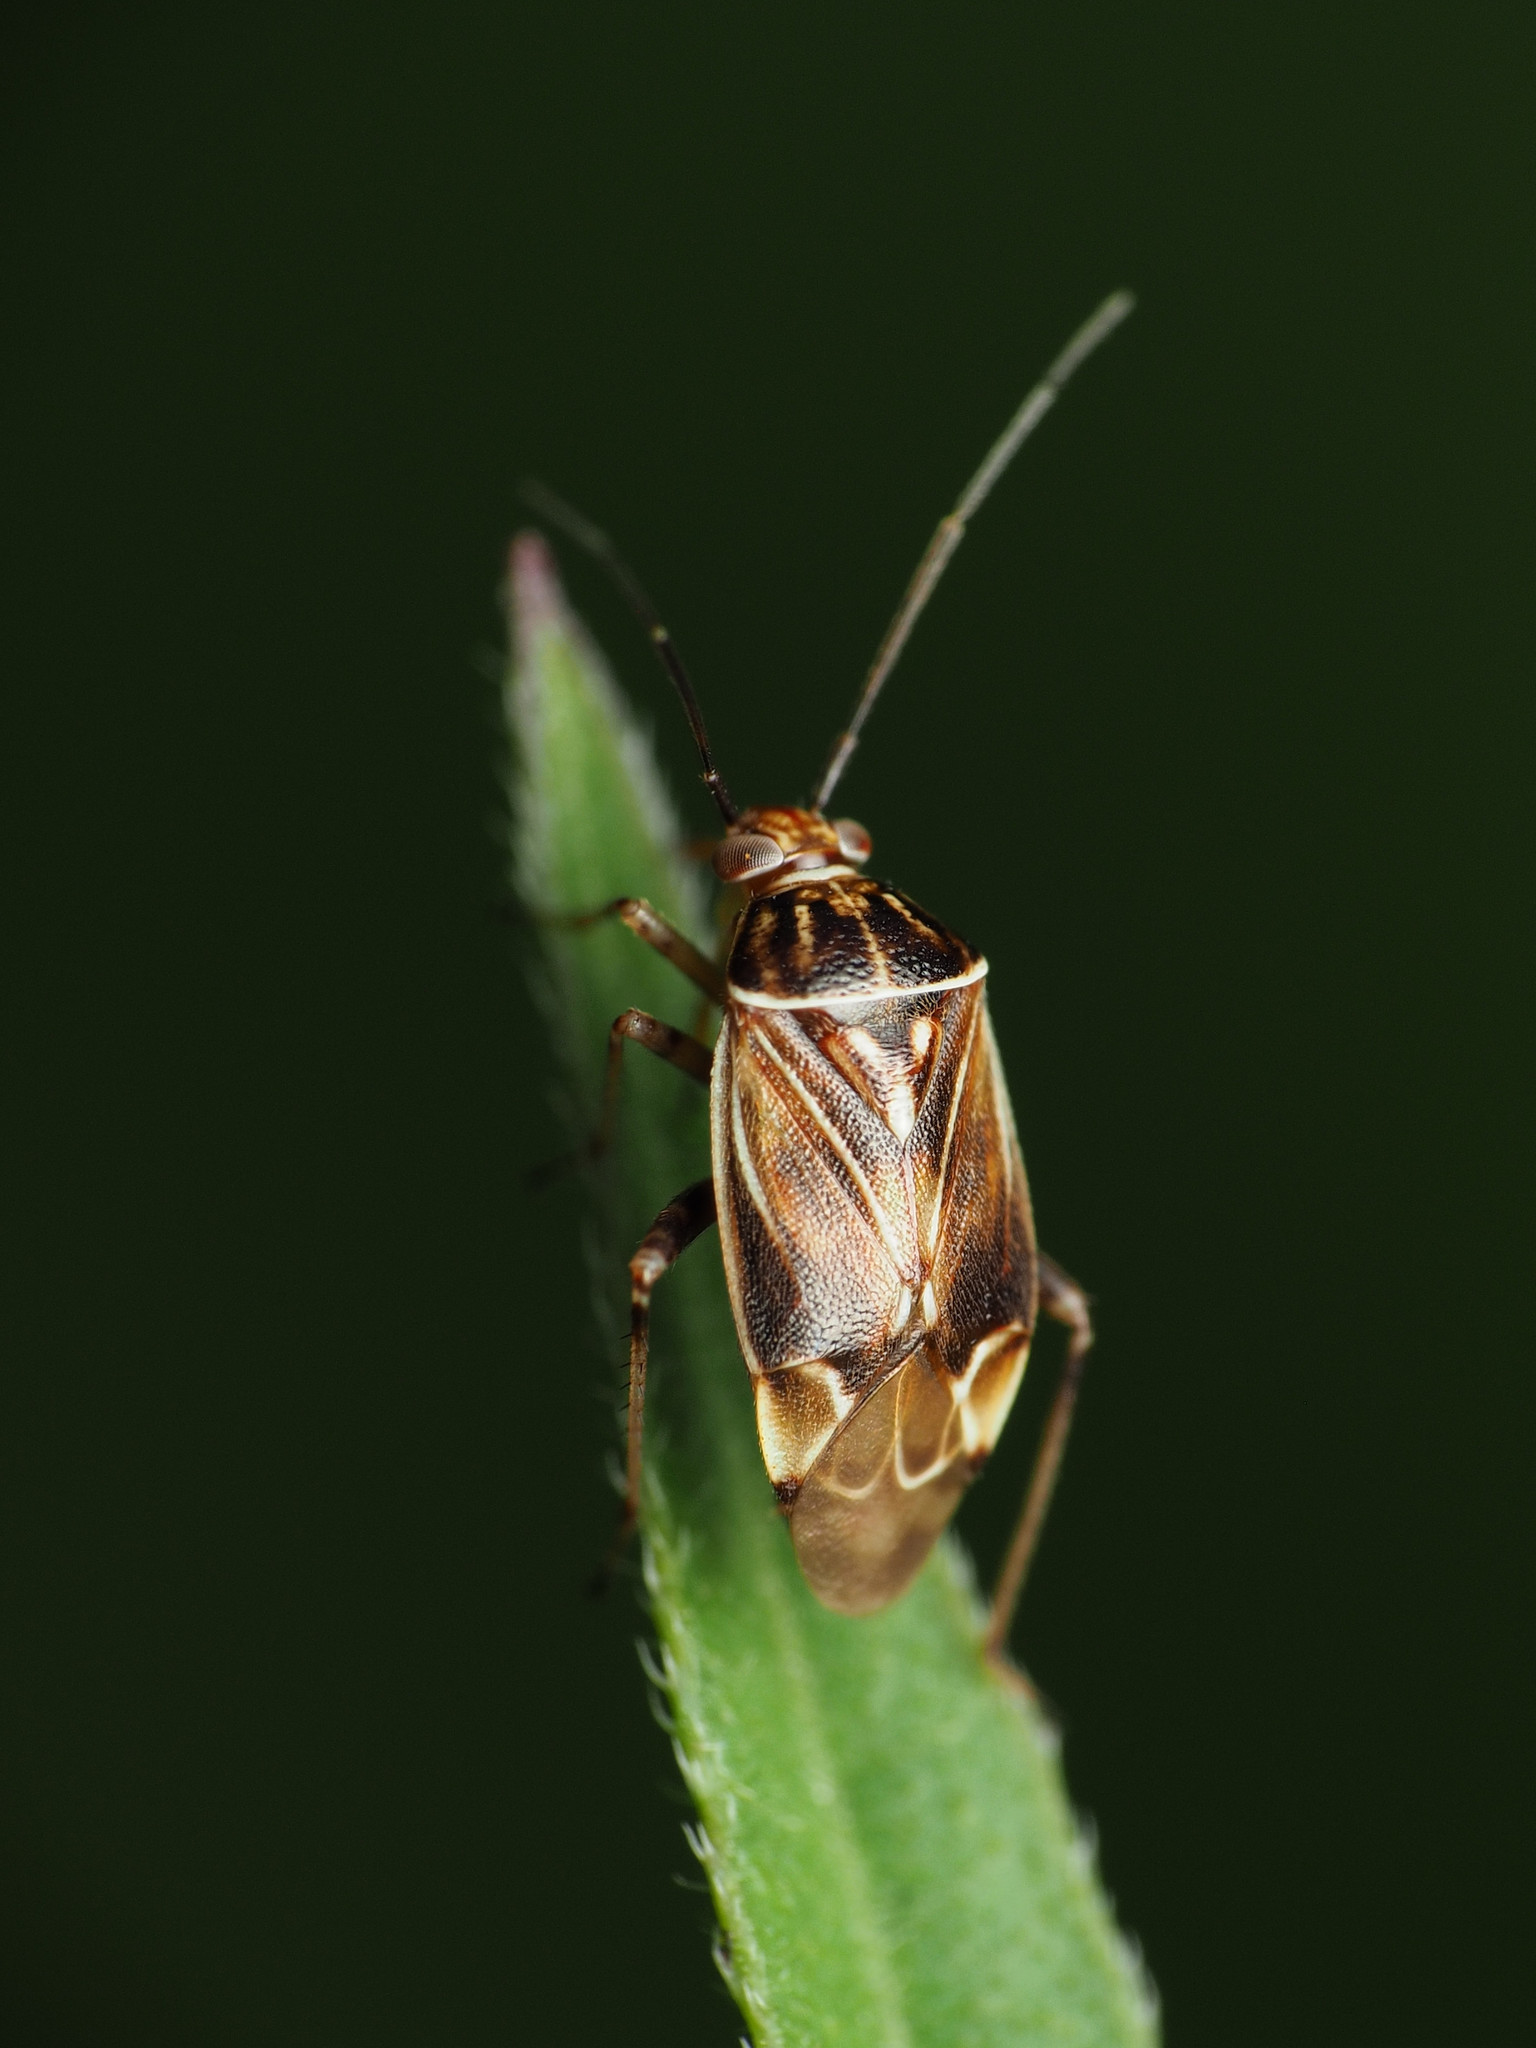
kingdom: Animalia
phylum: Arthropoda
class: Insecta
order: Hemiptera
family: Miridae
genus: Lygus
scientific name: Lygus lineolaris
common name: North american tarnished plant bug
